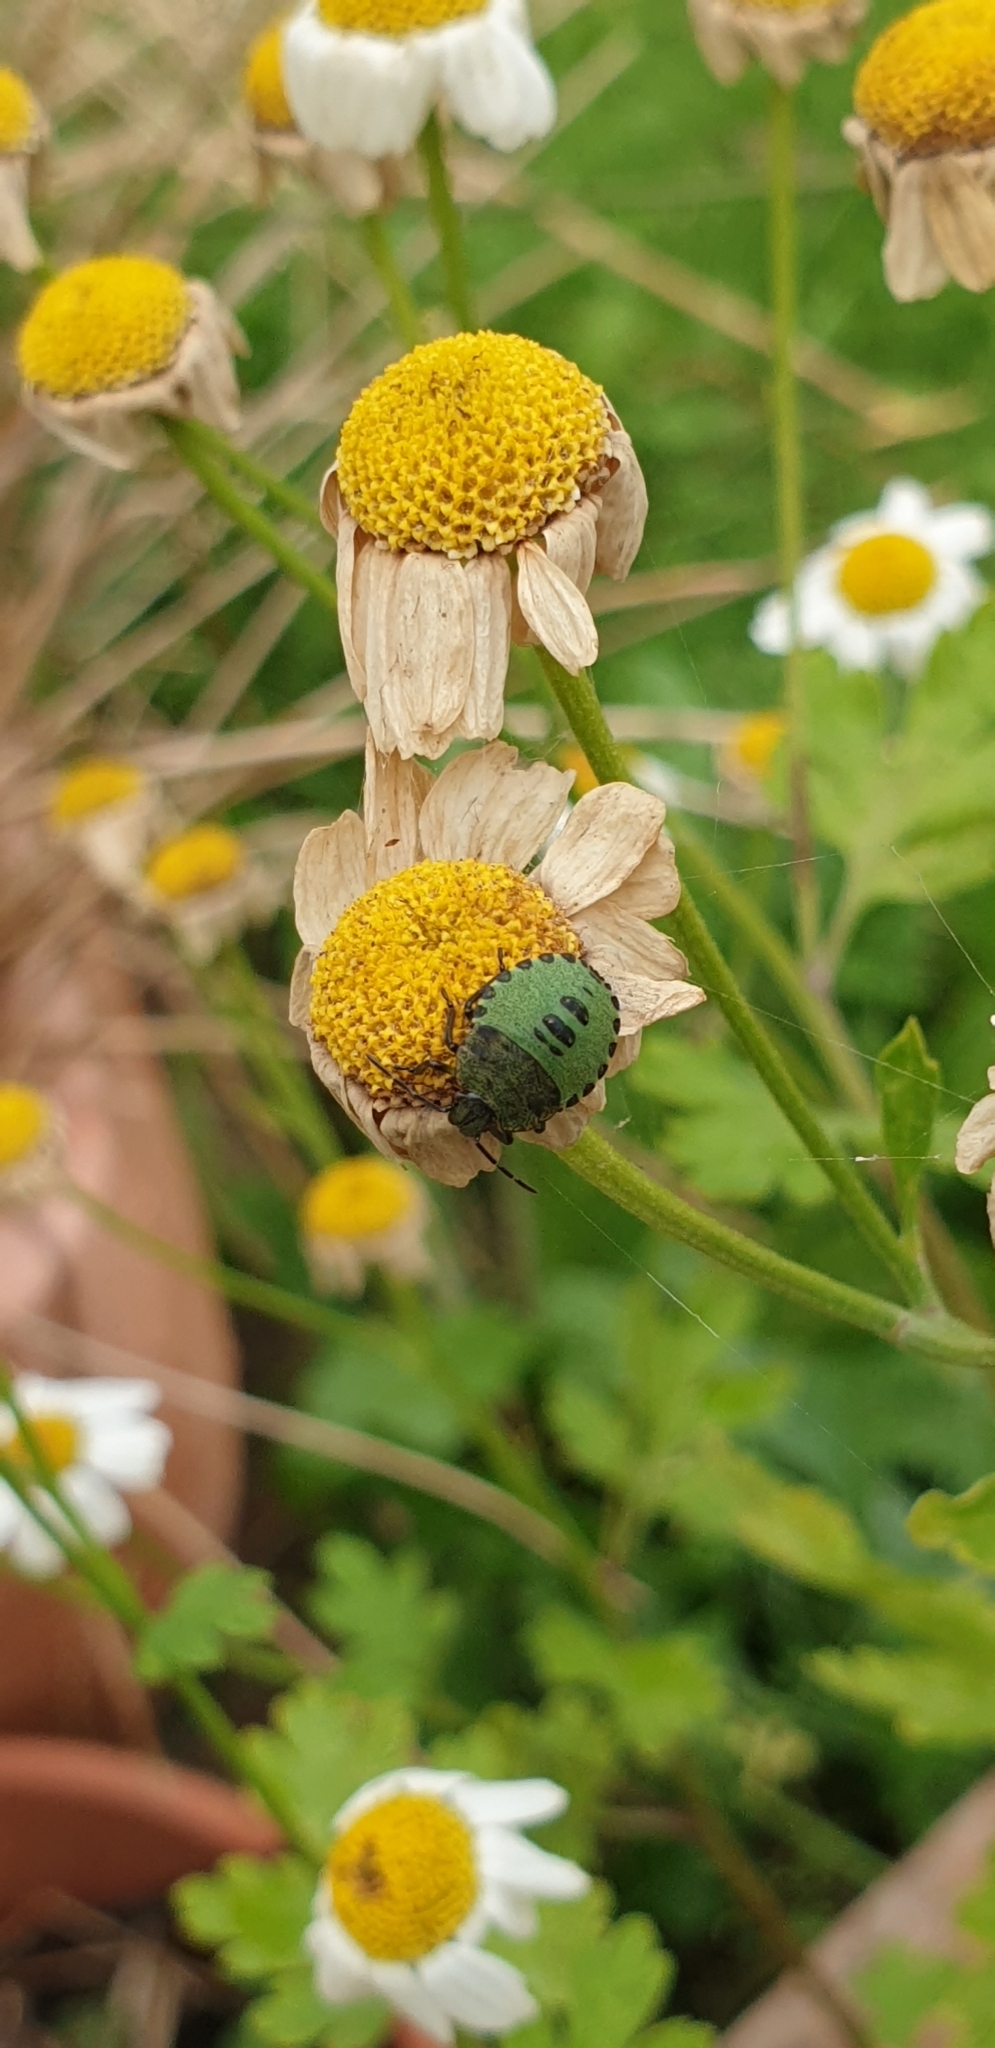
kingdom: Animalia
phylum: Arthropoda
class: Insecta
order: Hemiptera
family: Pentatomidae
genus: Palomena
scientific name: Palomena prasina
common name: Green shieldbug
